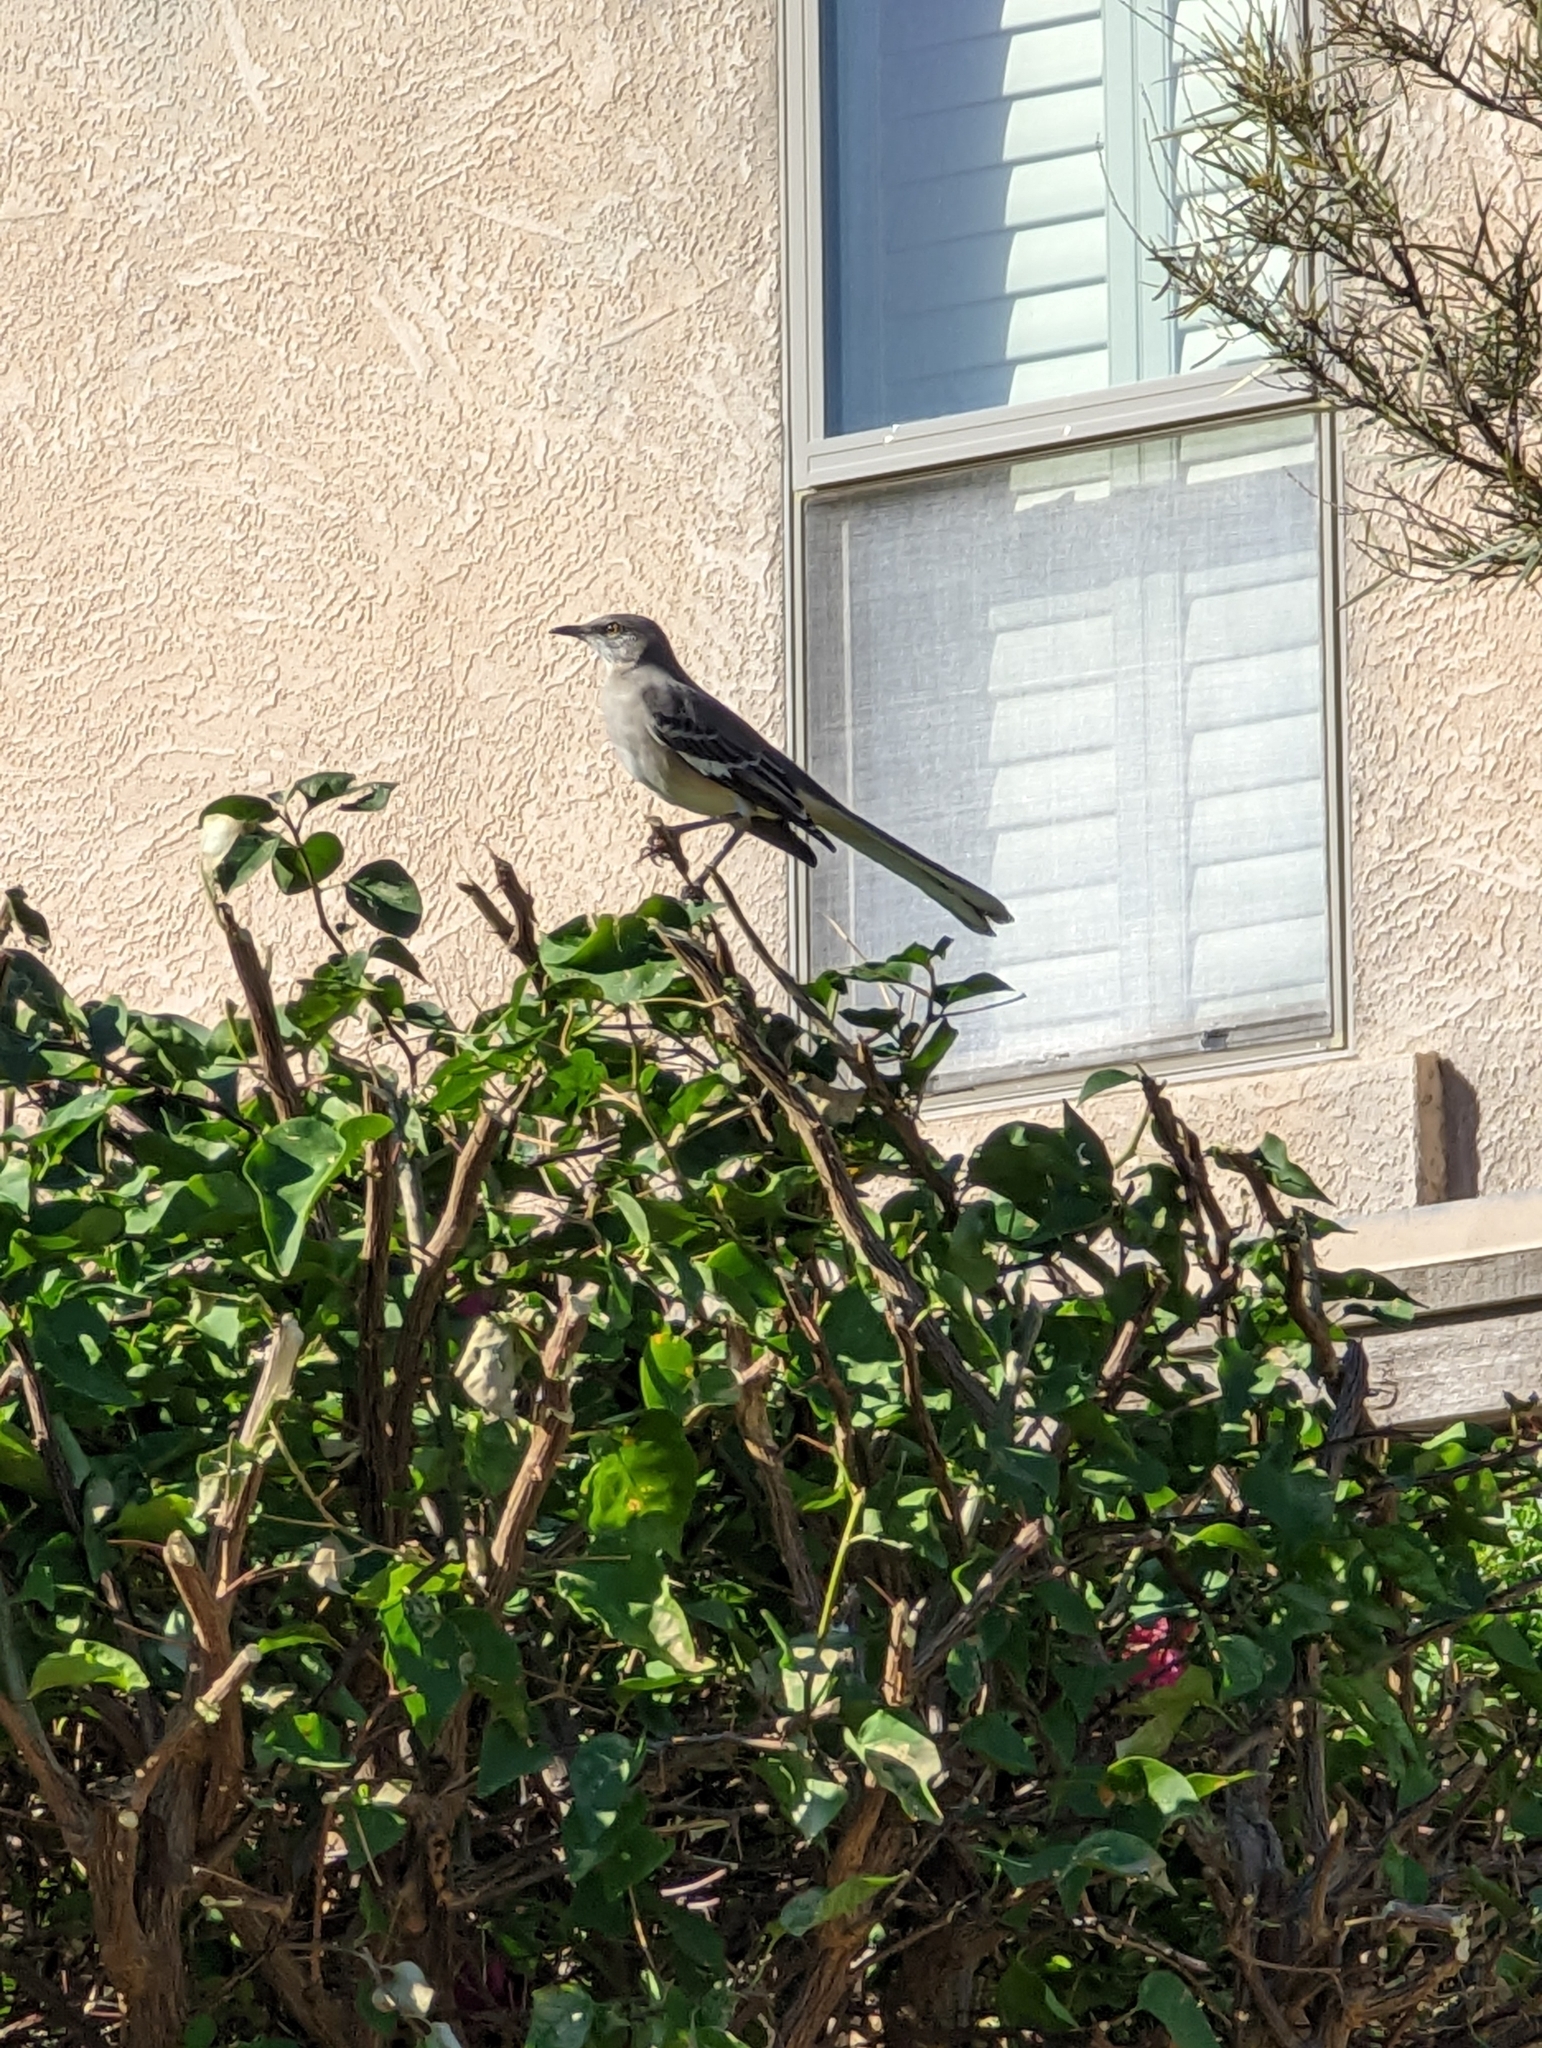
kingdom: Animalia
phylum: Chordata
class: Aves
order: Passeriformes
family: Mimidae
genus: Mimus
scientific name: Mimus polyglottos
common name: Northern mockingbird
